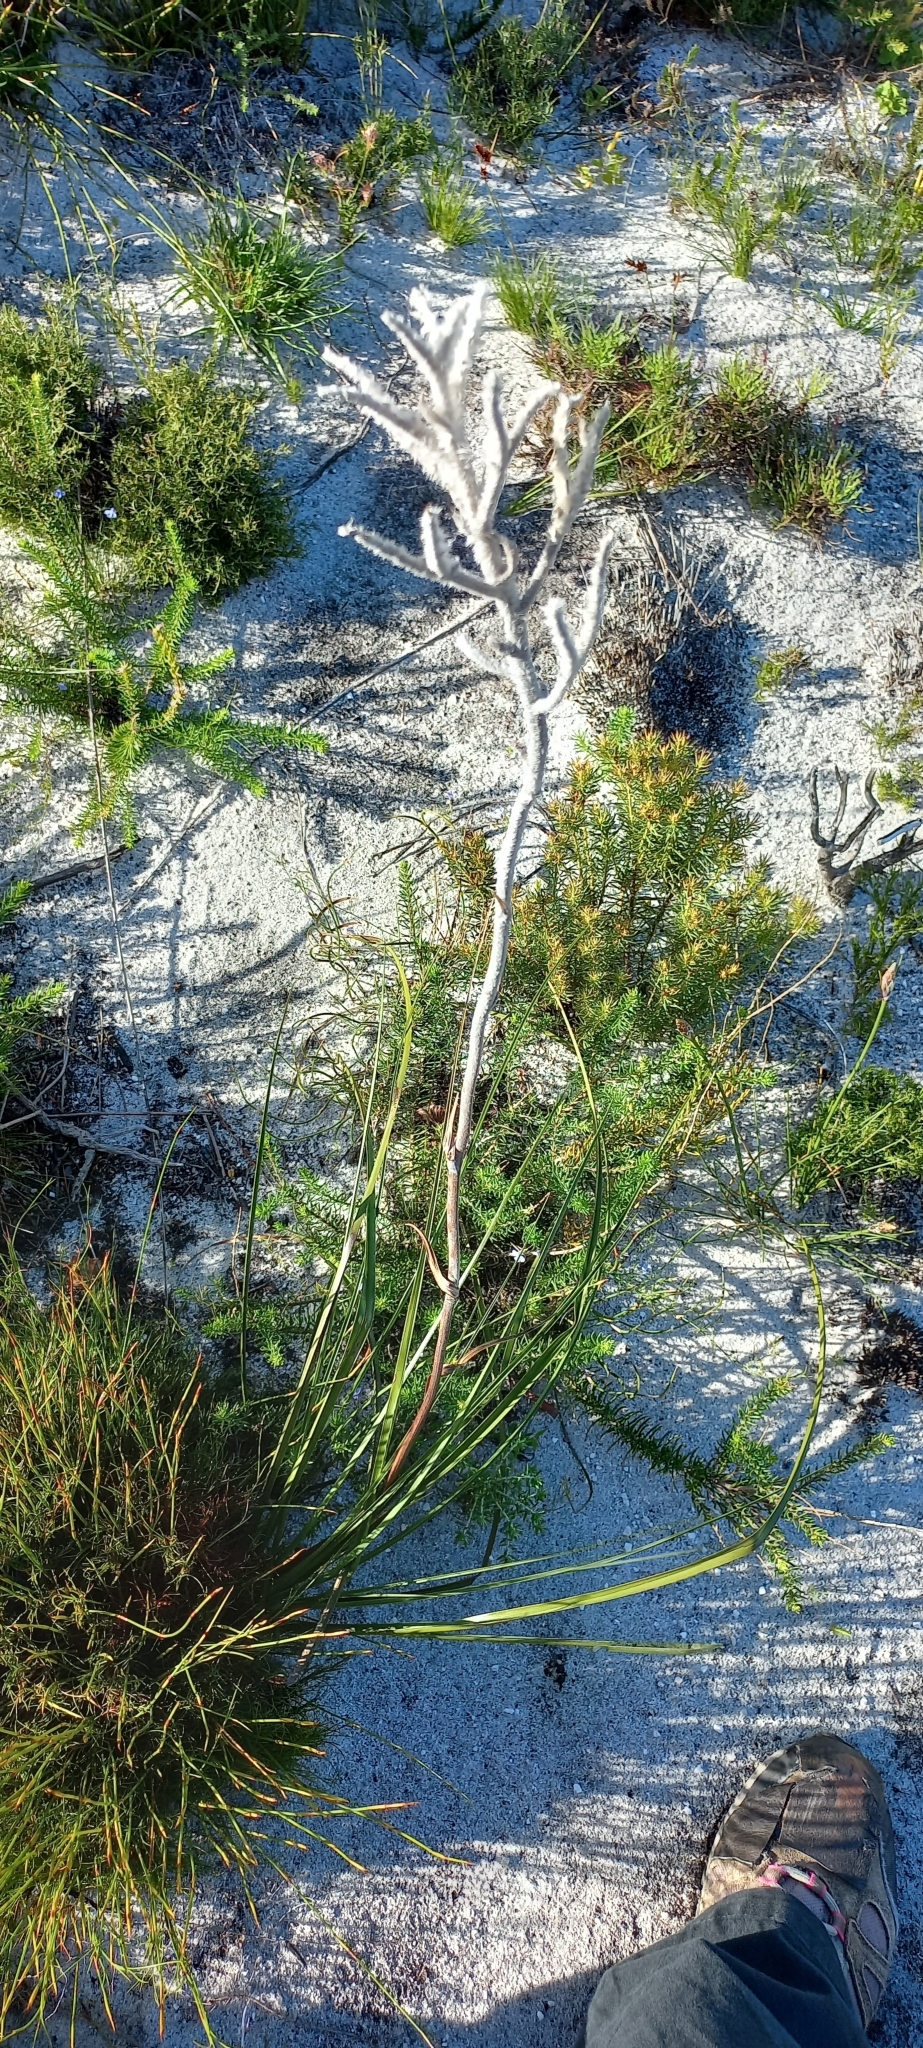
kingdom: Plantae
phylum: Tracheophyta
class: Liliopsida
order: Asparagales
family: Lanariaceae
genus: Lanaria
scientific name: Lanaria lanata
